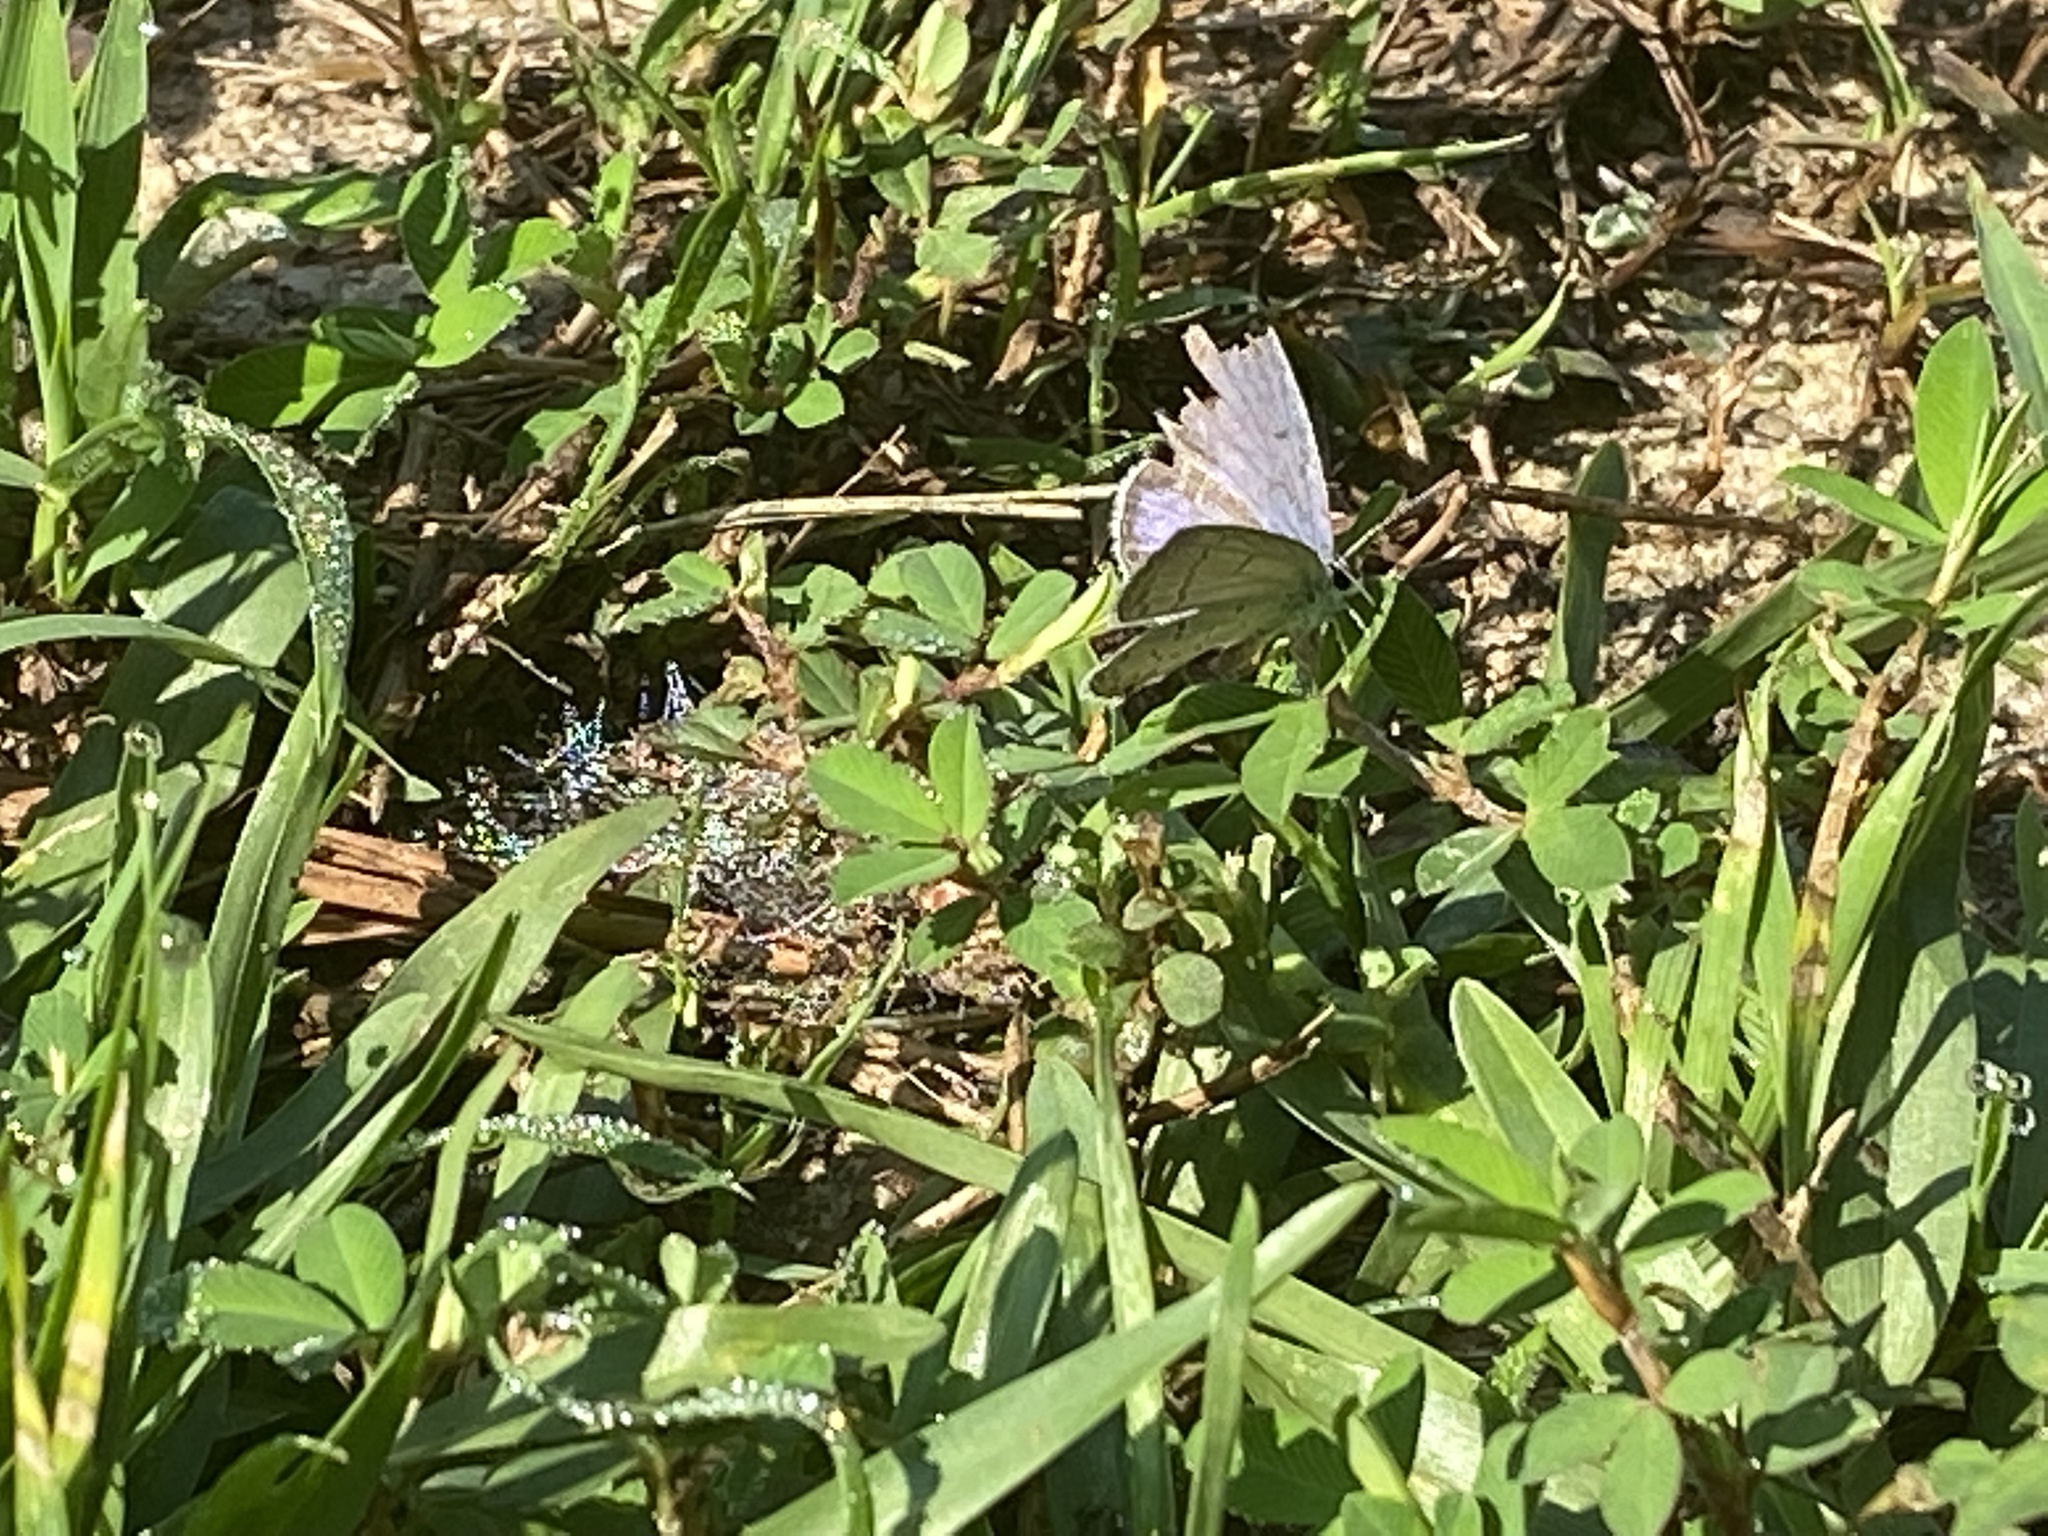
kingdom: Animalia
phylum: Arthropoda
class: Insecta
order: Lepidoptera
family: Lycaenidae
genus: Elkalyce
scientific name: Elkalyce comyntas
